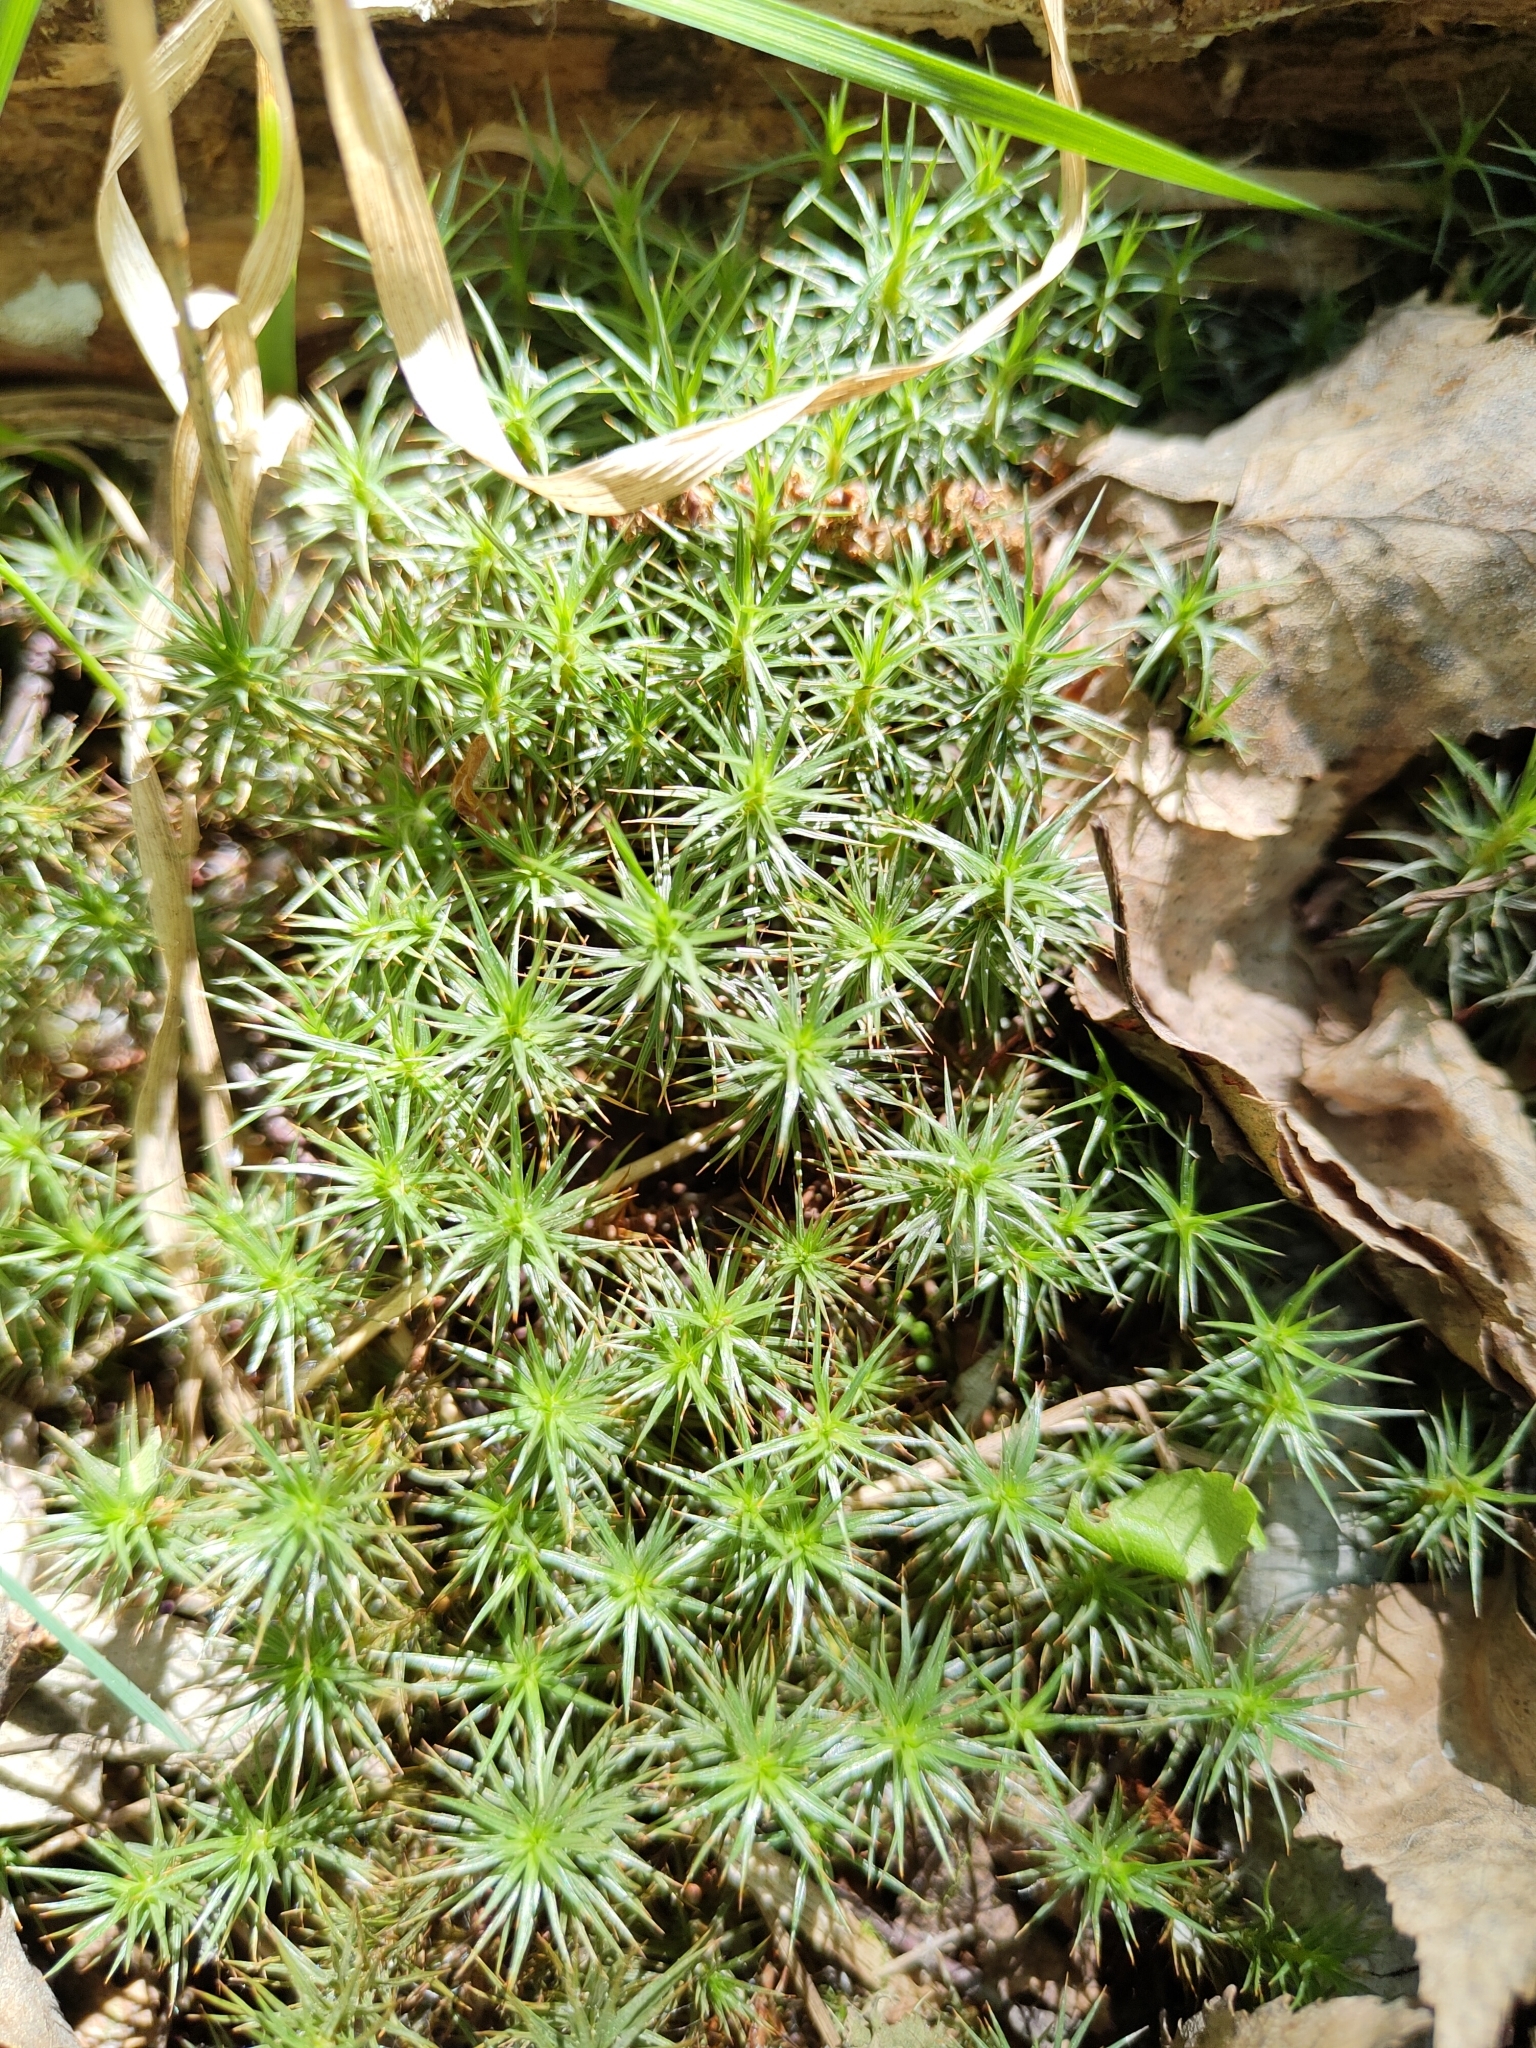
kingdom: Plantae
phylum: Bryophyta
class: Polytrichopsida
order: Polytrichales
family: Polytrichaceae
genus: Polytrichum
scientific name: Polytrichum juniperinum
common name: Juniper haircap moss
